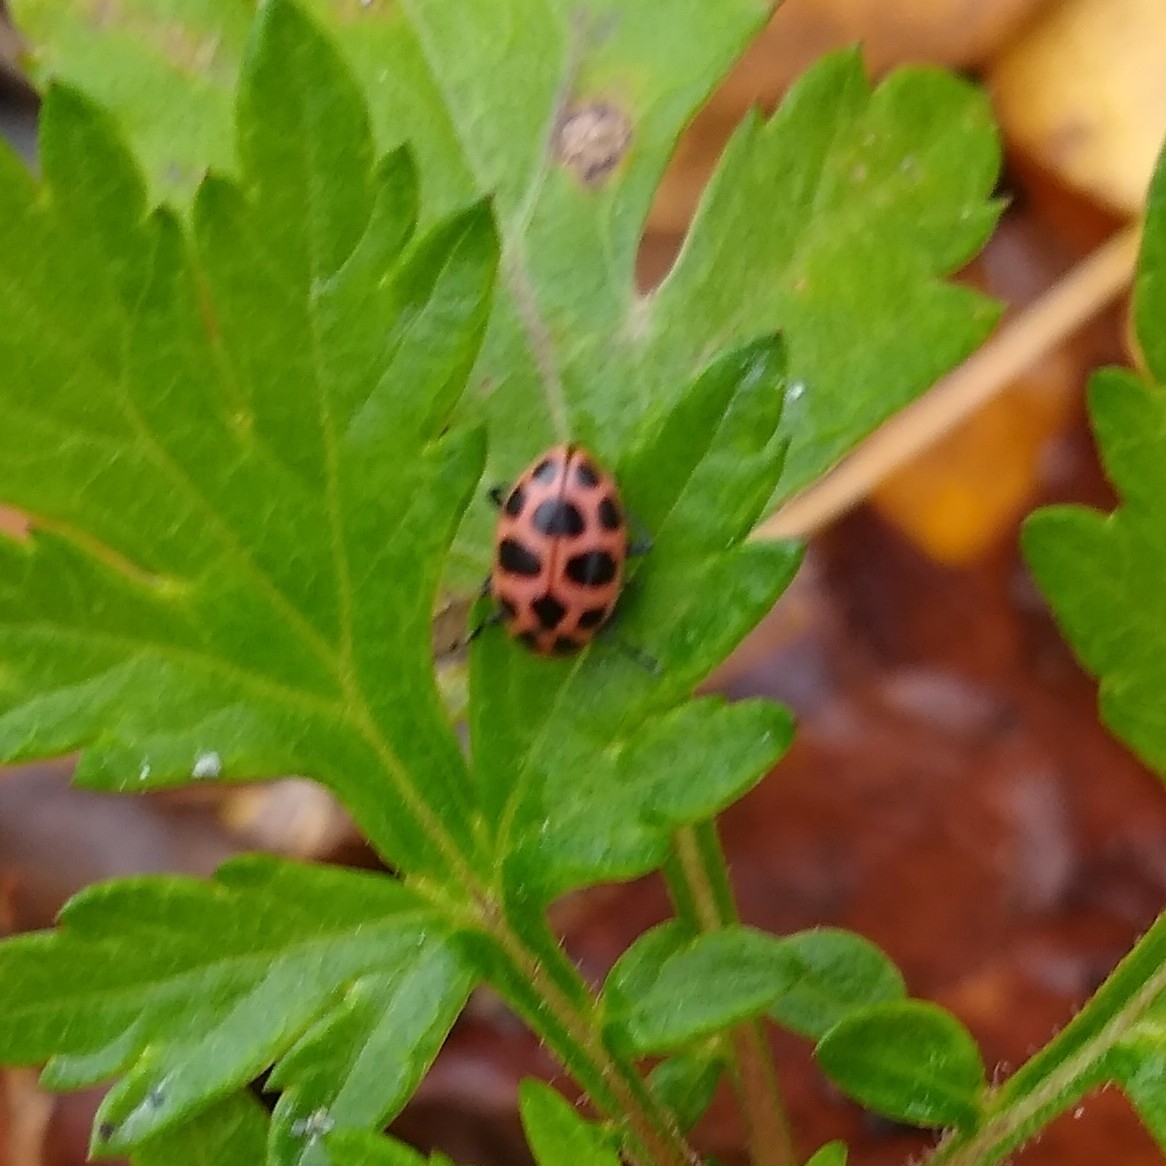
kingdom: Animalia
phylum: Arthropoda
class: Insecta
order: Coleoptera
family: Coccinellidae
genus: Coleomegilla
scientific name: Coleomegilla maculata
